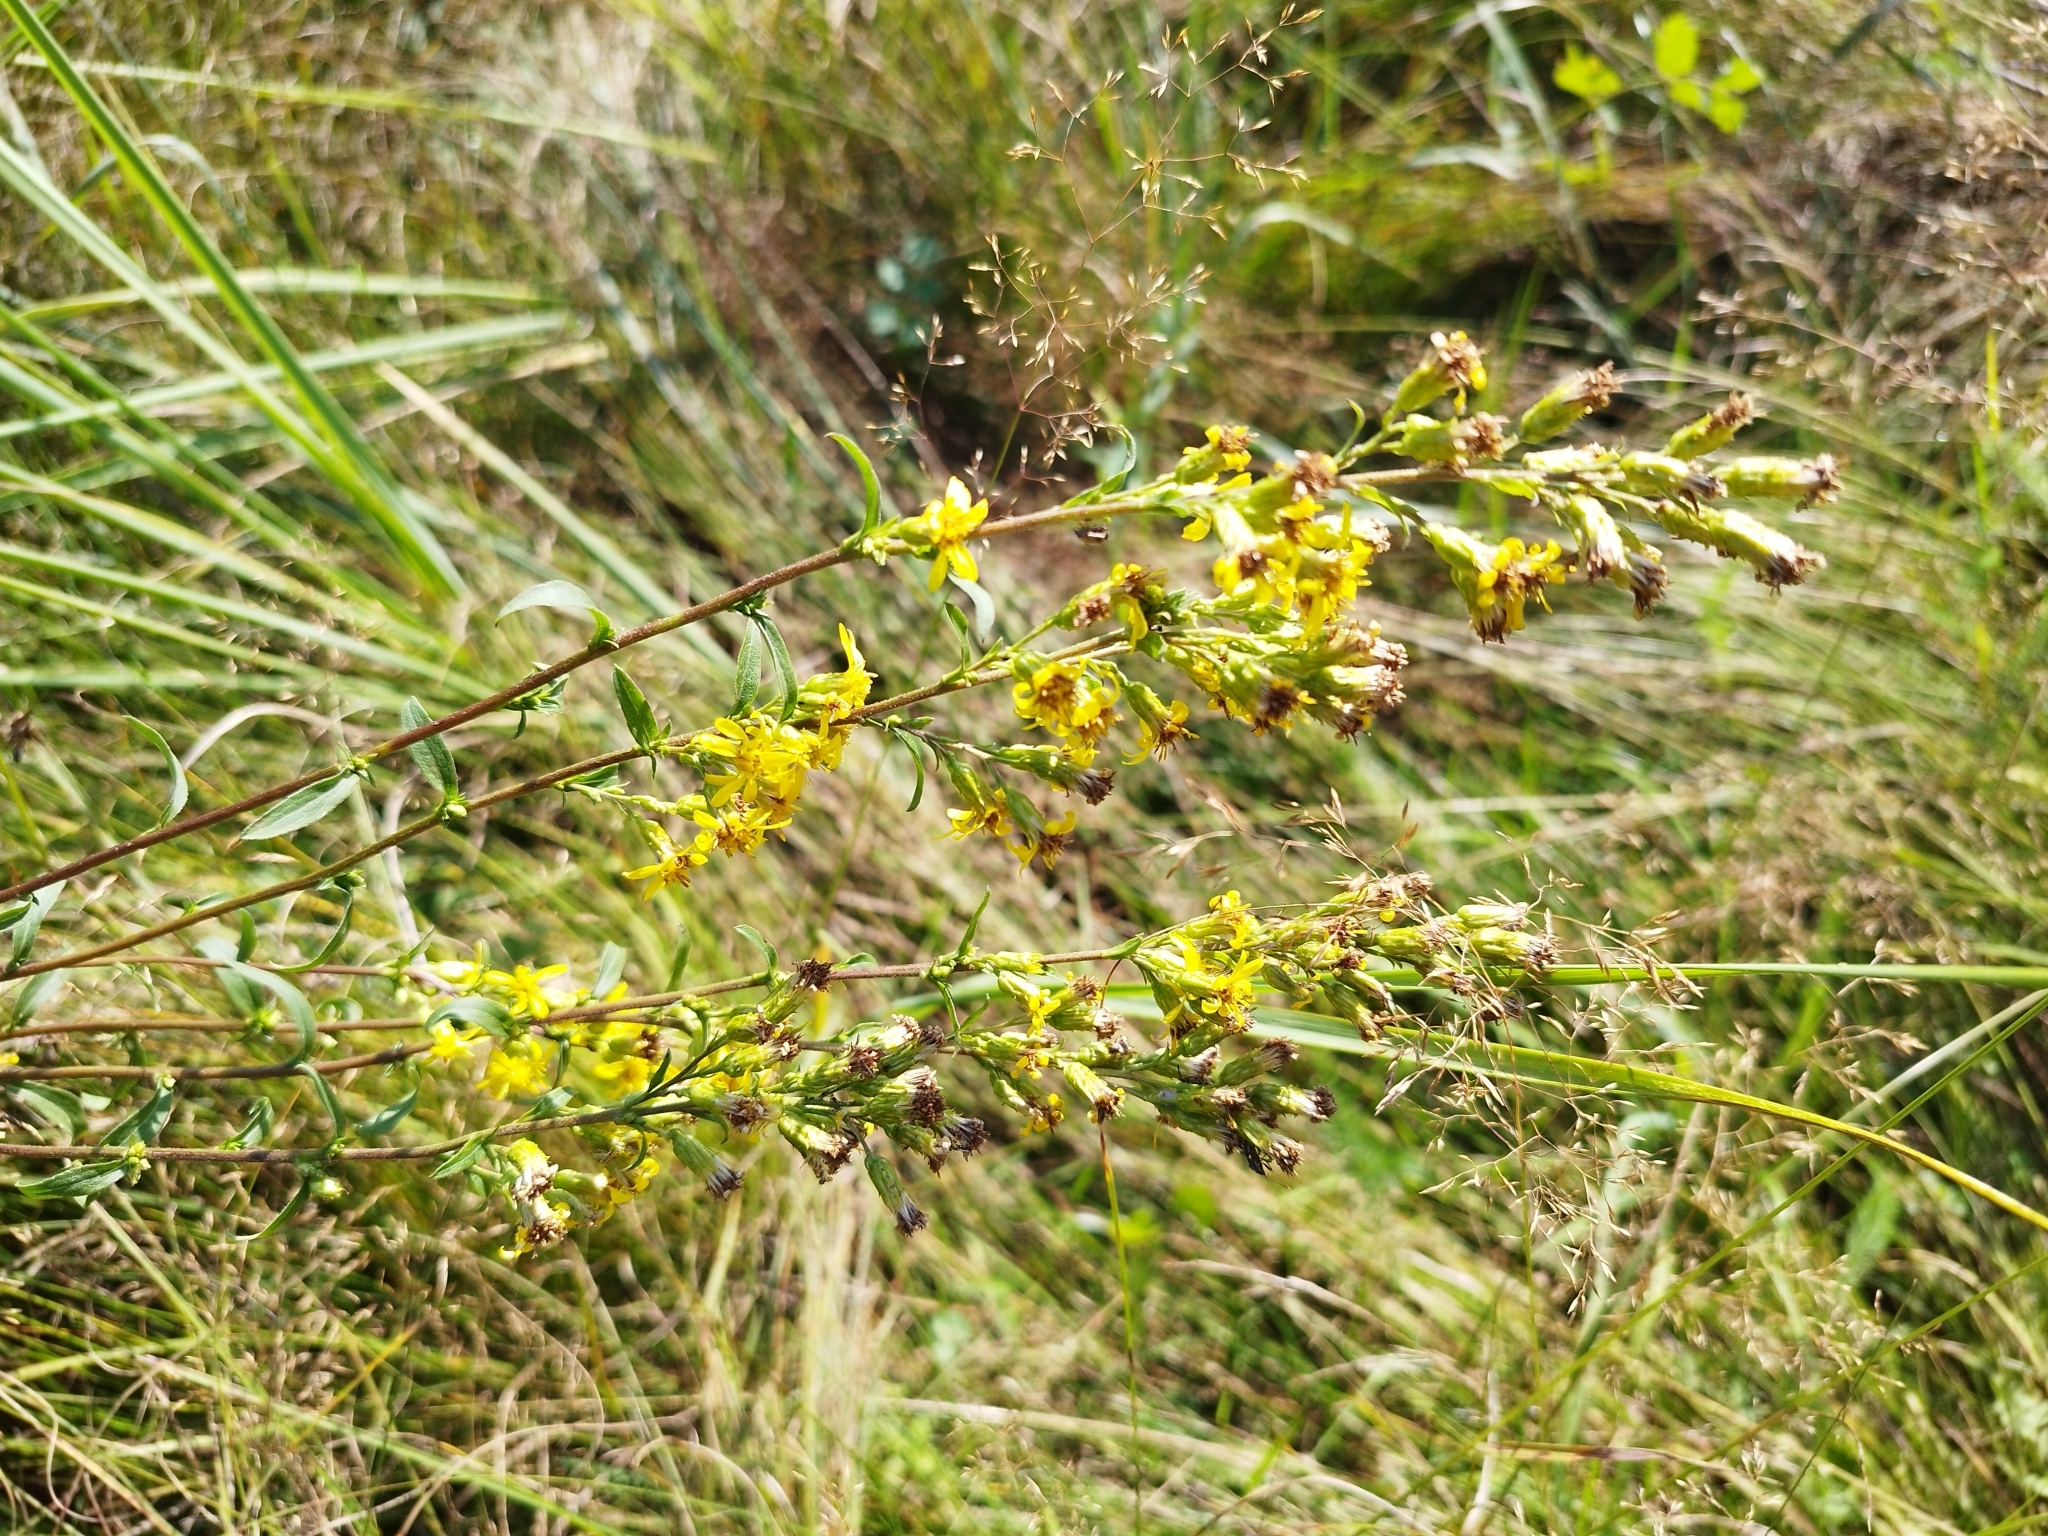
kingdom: Plantae
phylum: Tracheophyta
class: Magnoliopsida
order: Asterales
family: Asteraceae
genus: Solidago
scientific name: Solidago virgaurea
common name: Goldenrod
